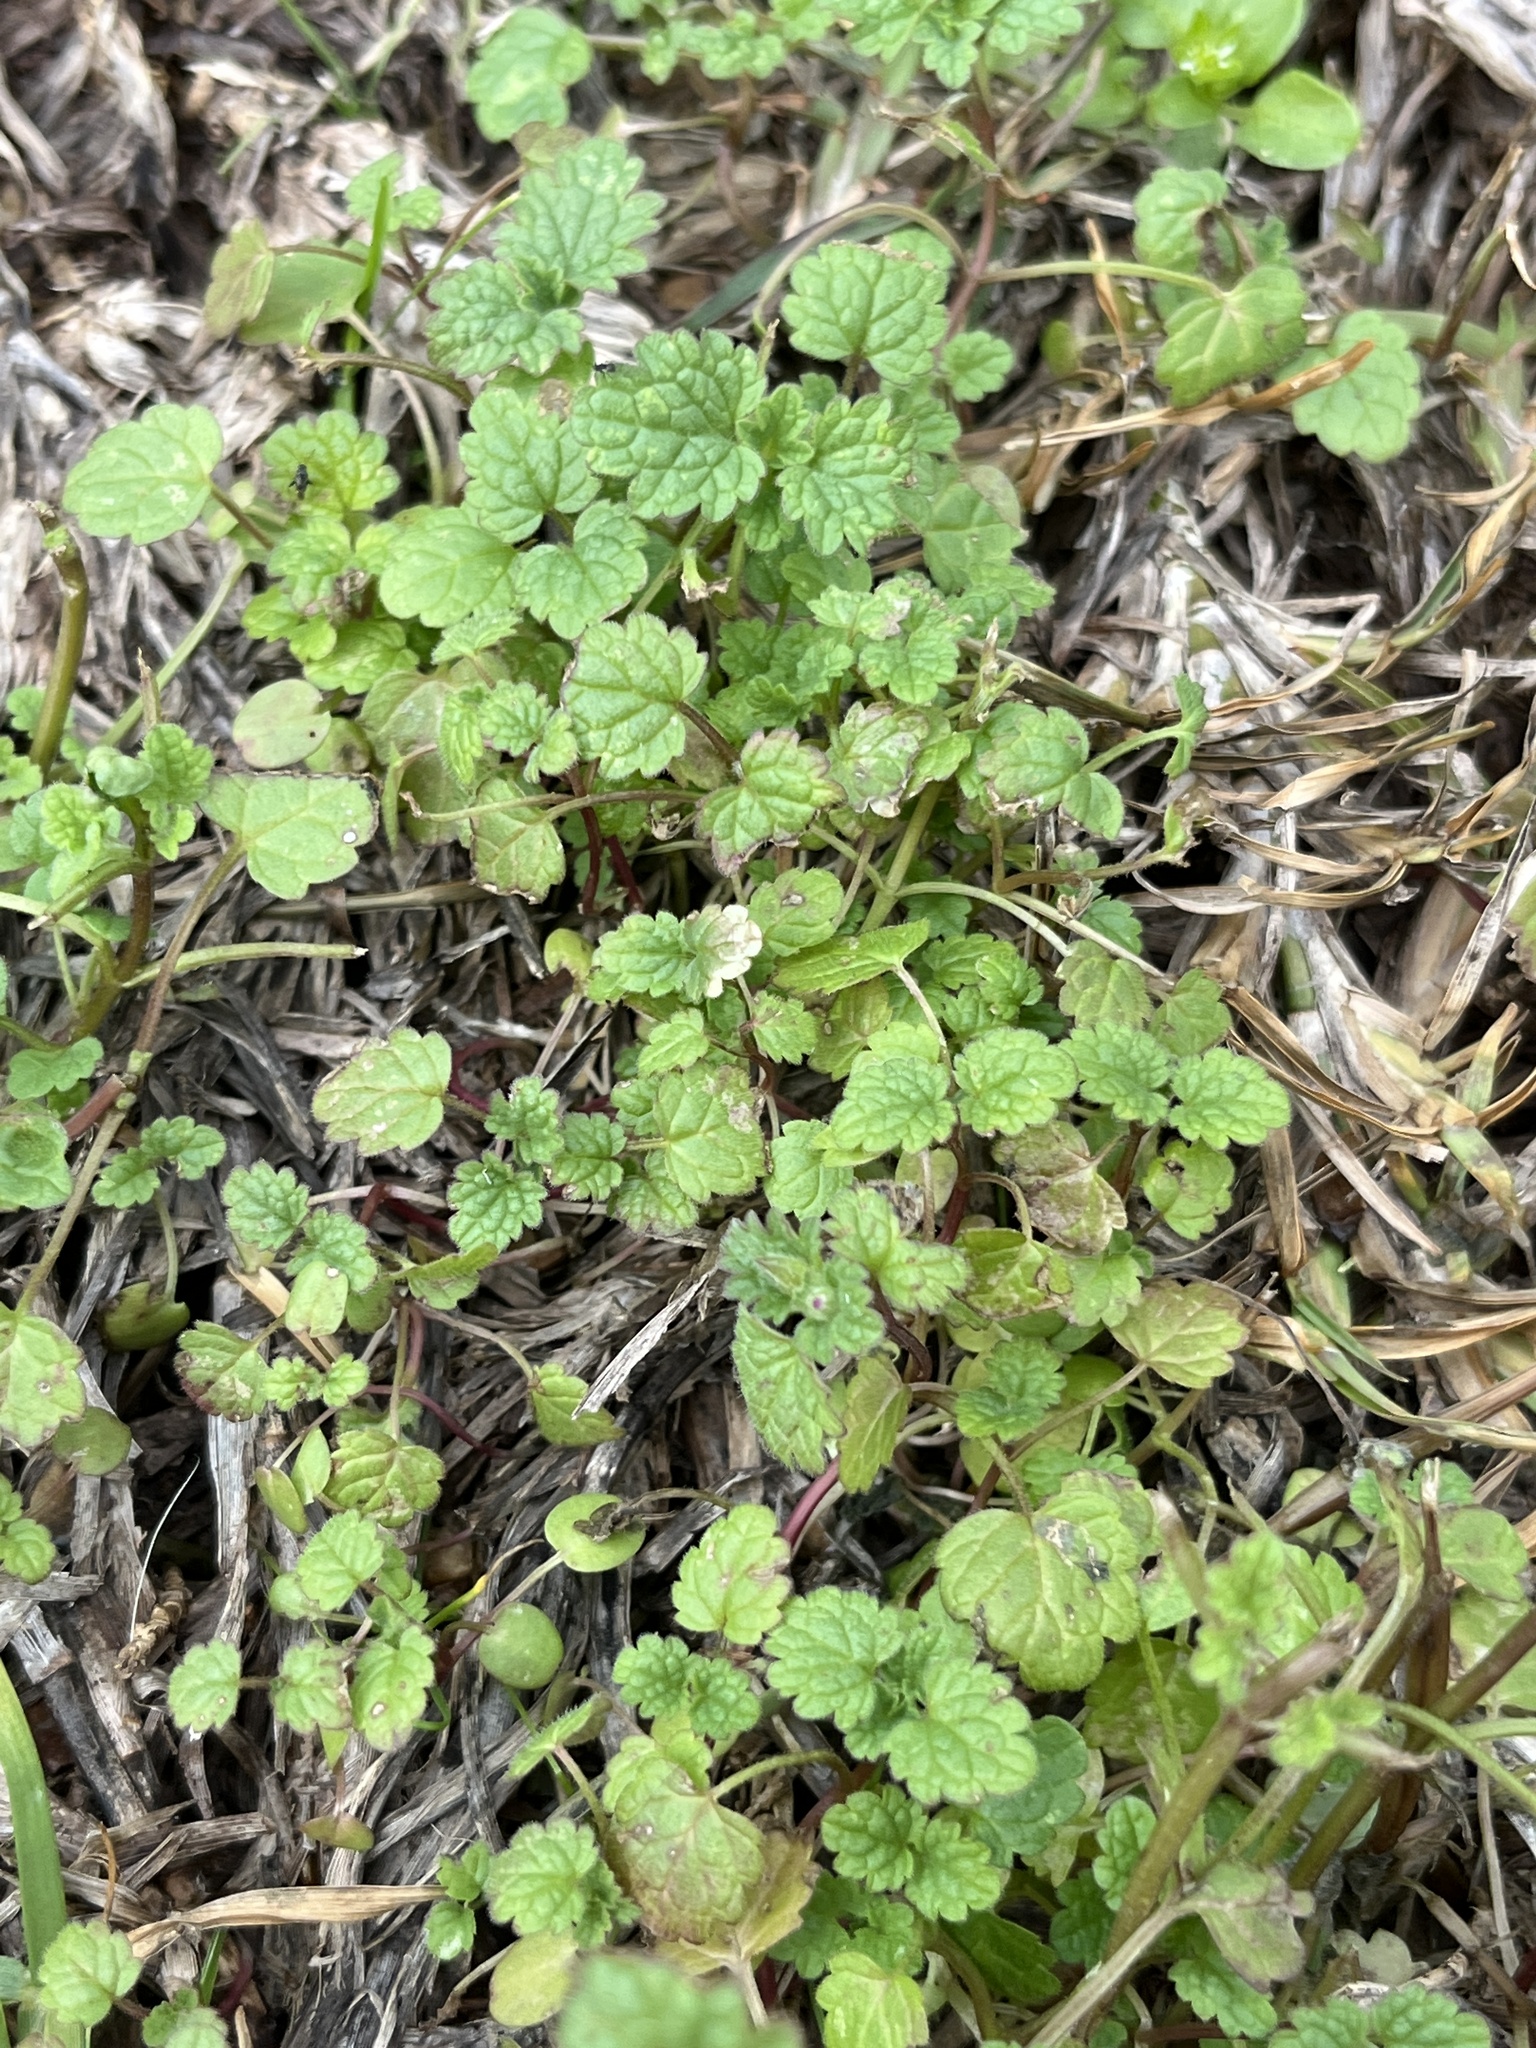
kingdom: Plantae
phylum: Tracheophyta
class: Magnoliopsida
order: Lamiales
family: Lamiaceae
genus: Lamium
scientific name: Lamium amplexicaule
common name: Henbit dead-nettle
